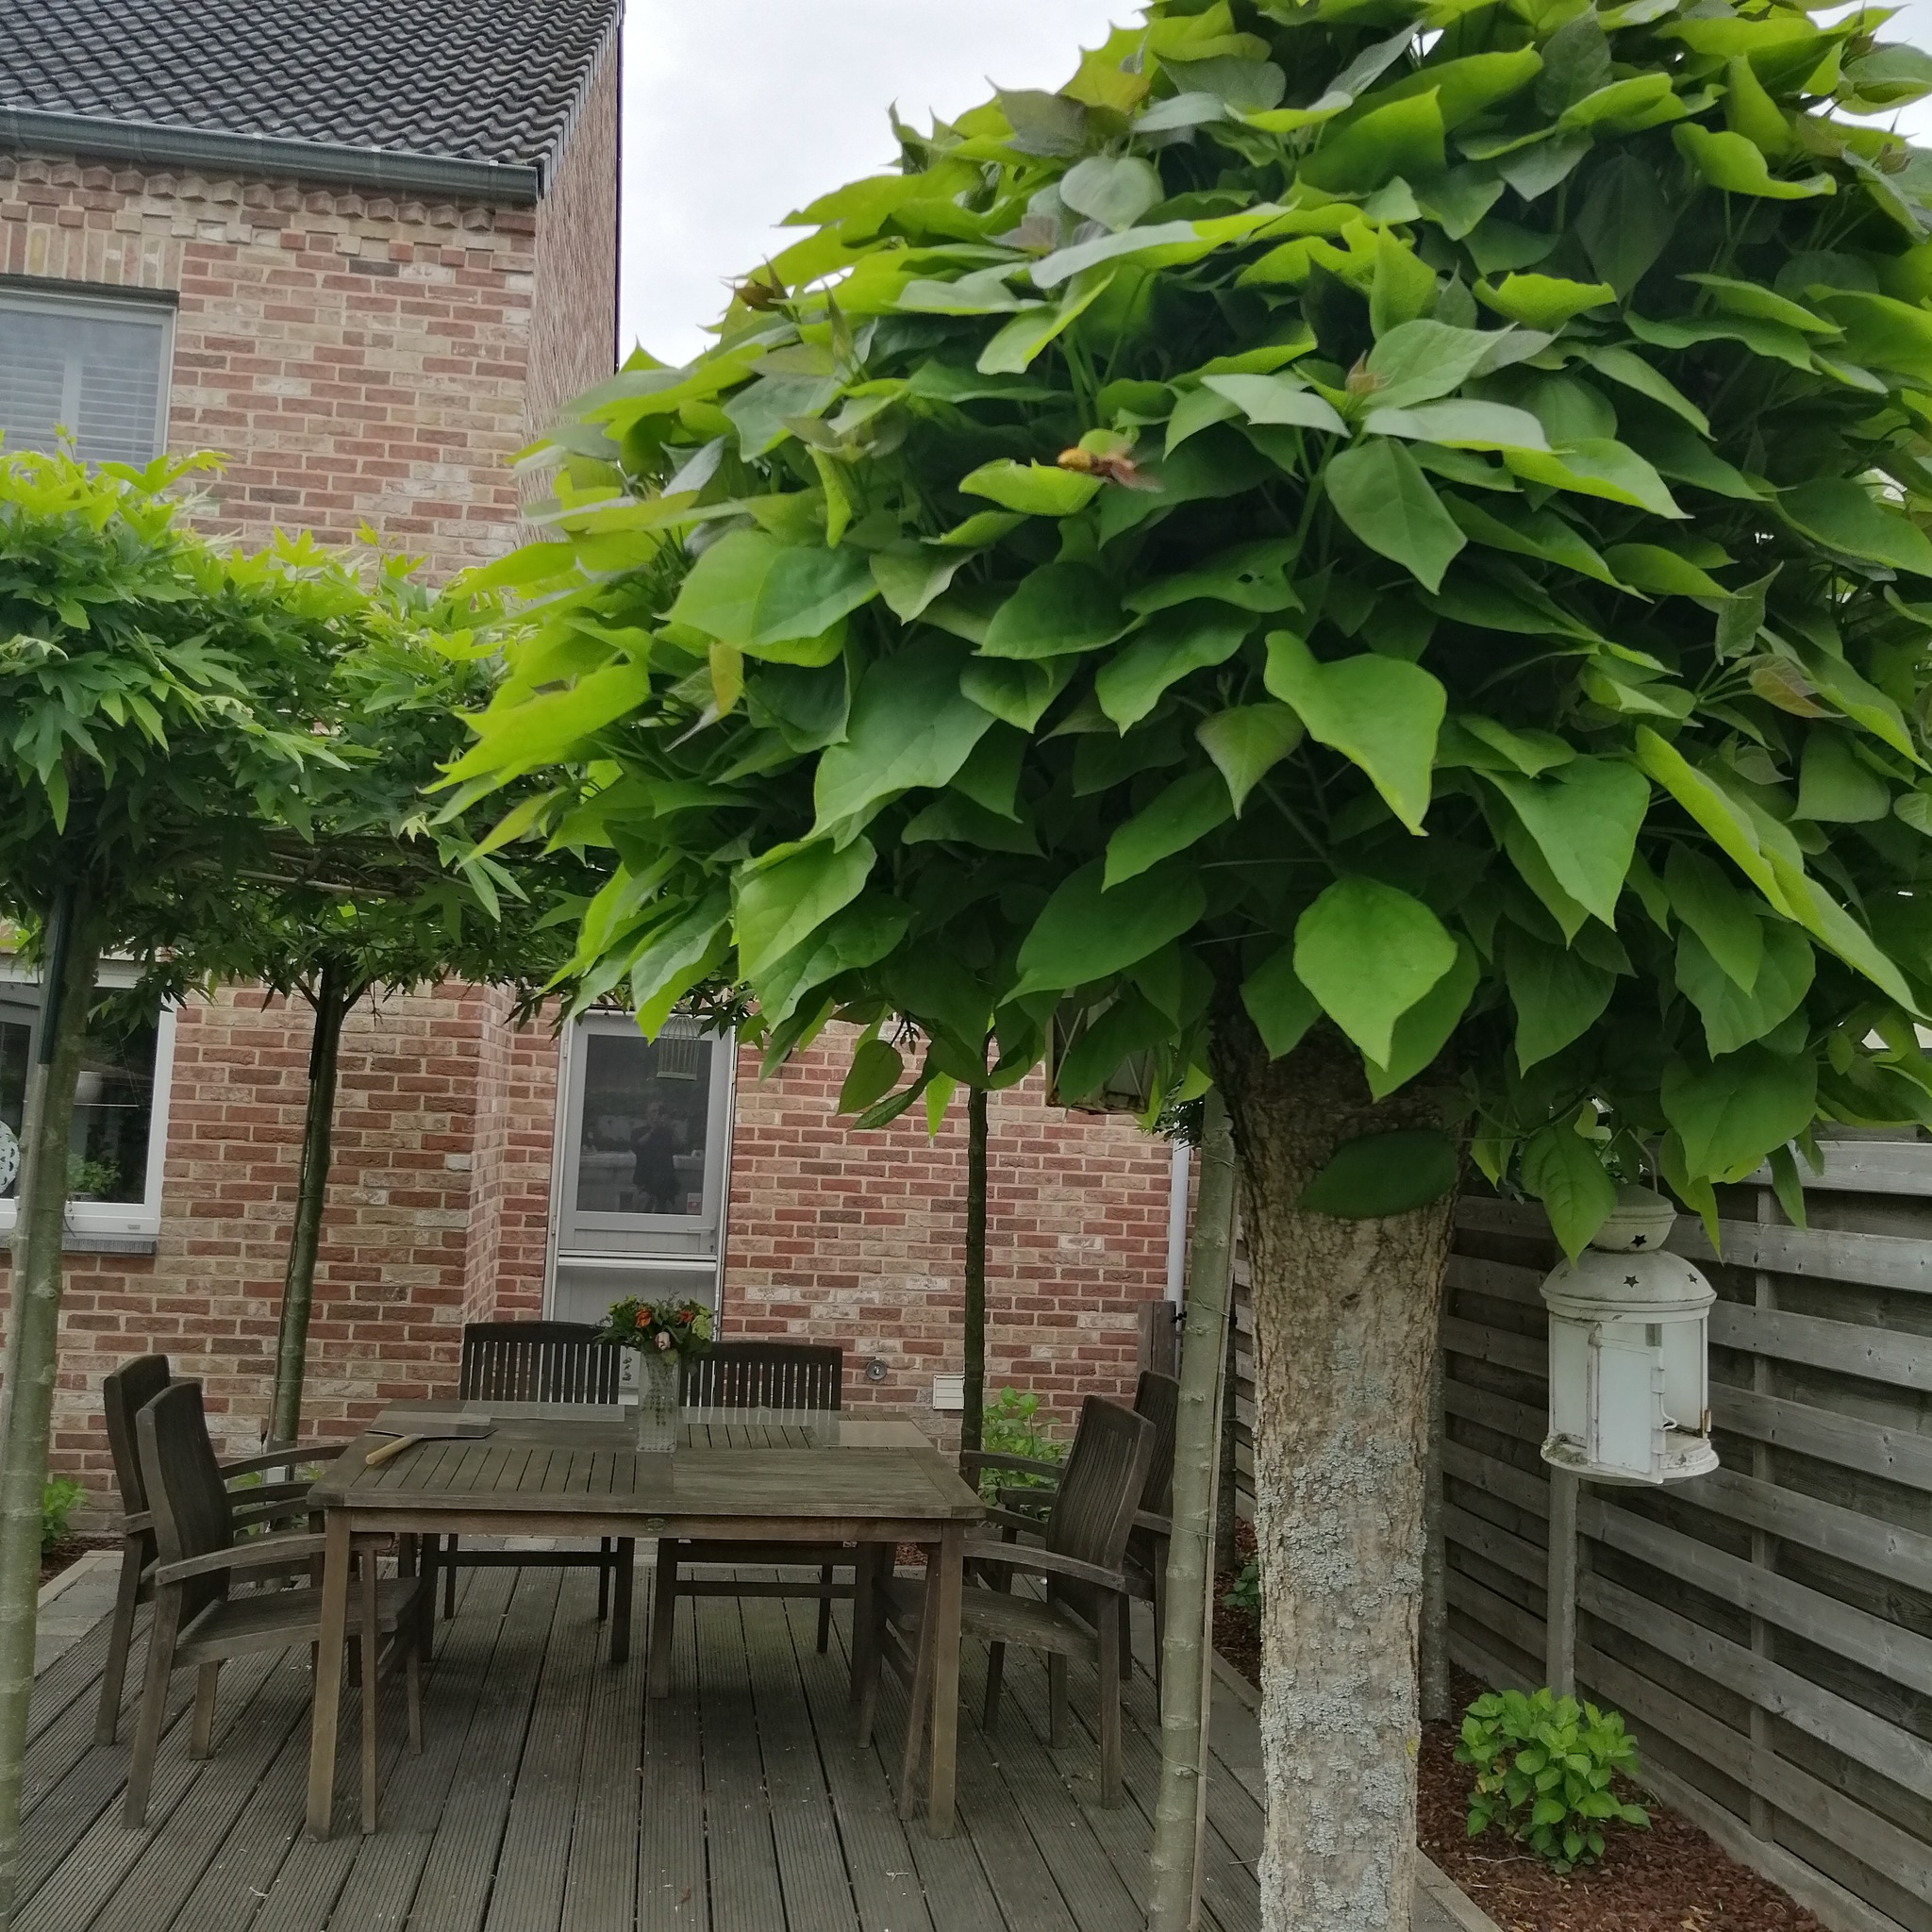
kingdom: Animalia
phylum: Arthropoda
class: Insecta
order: Hymenoptera
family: Vespidae
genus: Vespa
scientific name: Vespa crabro
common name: Hornet
